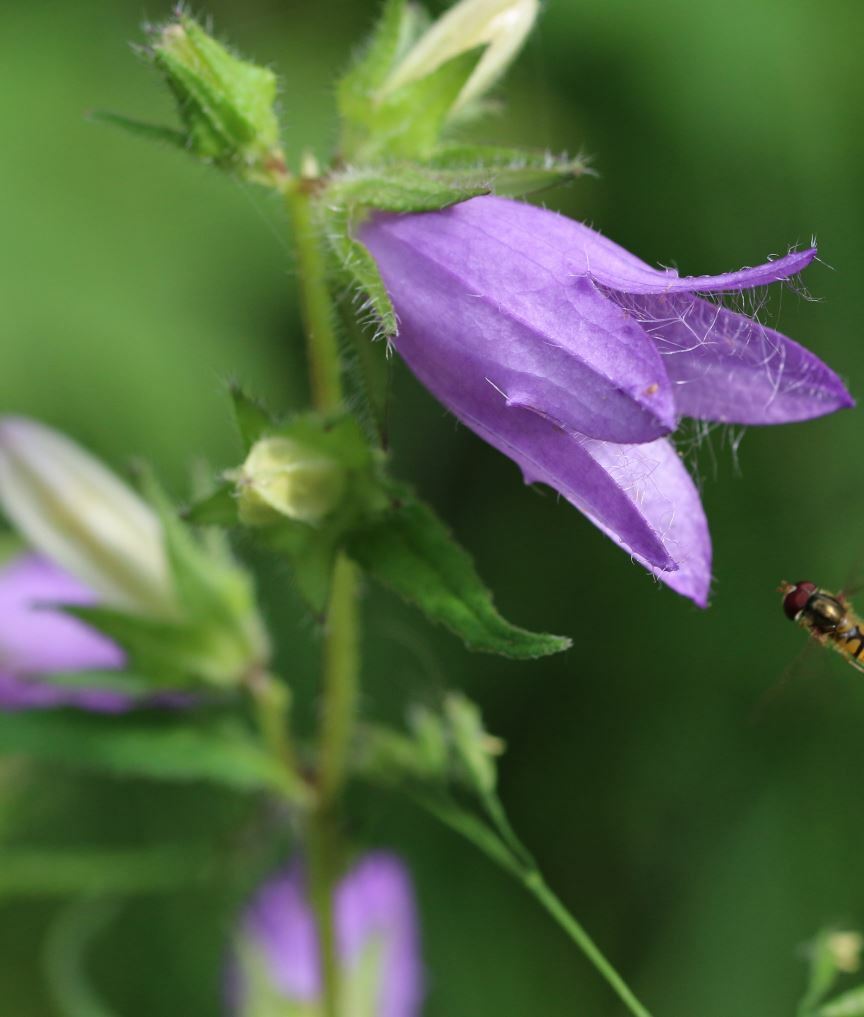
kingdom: Plantae
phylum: Tracheophyta
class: Magnoliopsida
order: Asterales
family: Campanulaceae
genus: Campanula
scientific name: Campanula trachelium
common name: Nettle-leaved bellflower
